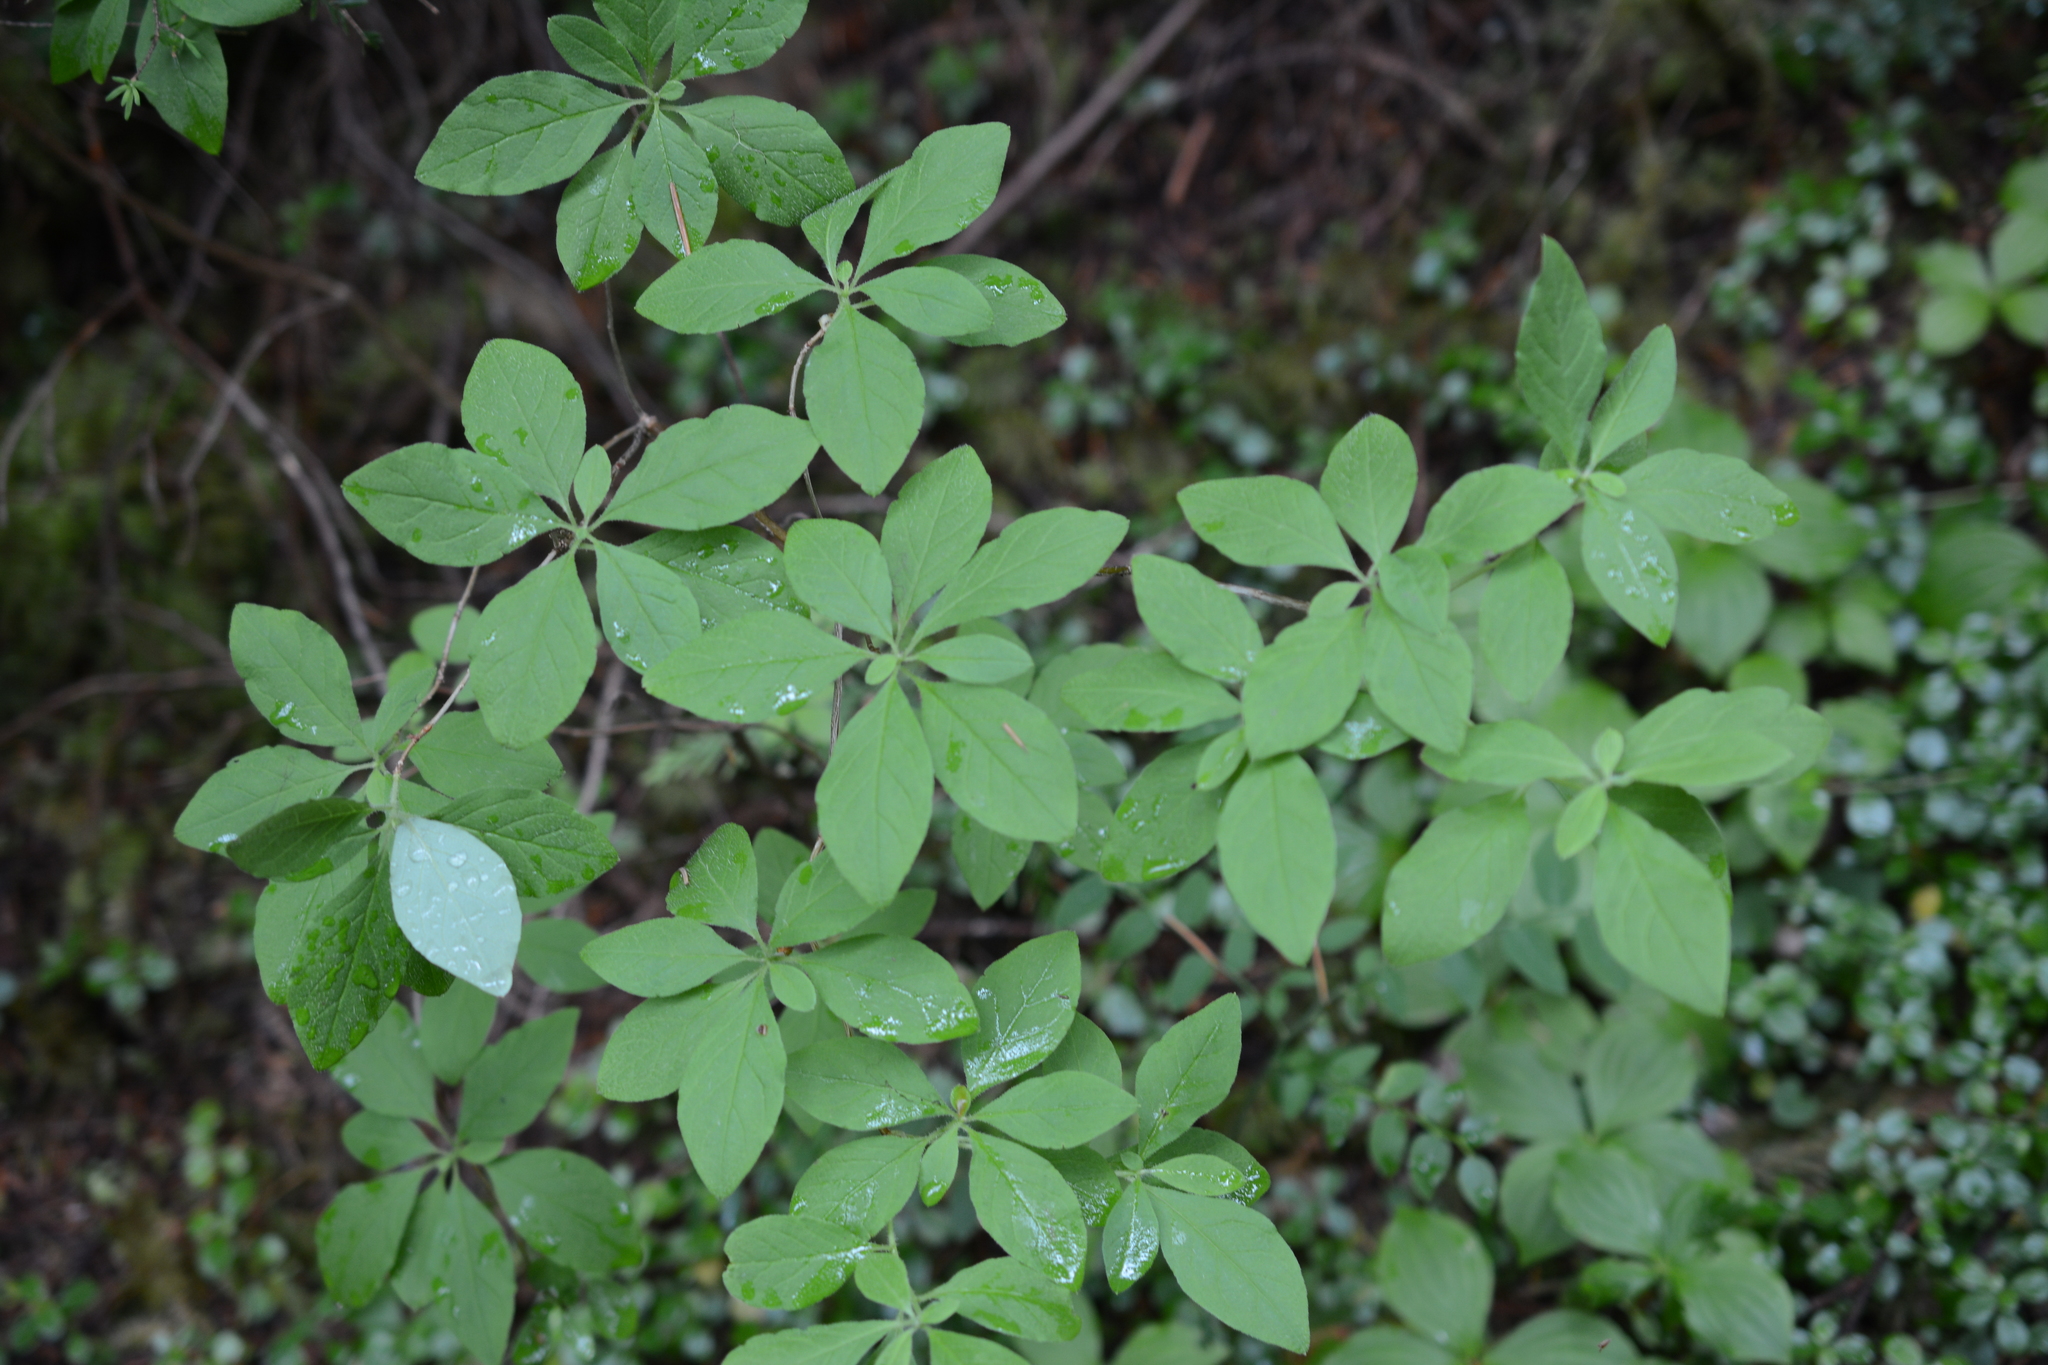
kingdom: Plantae
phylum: Tracheophyta
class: Magnoliopsida
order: Ericales
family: Ericaceae
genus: Rhododendron
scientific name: Rhododendron menziesii
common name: Pacific menziesia
